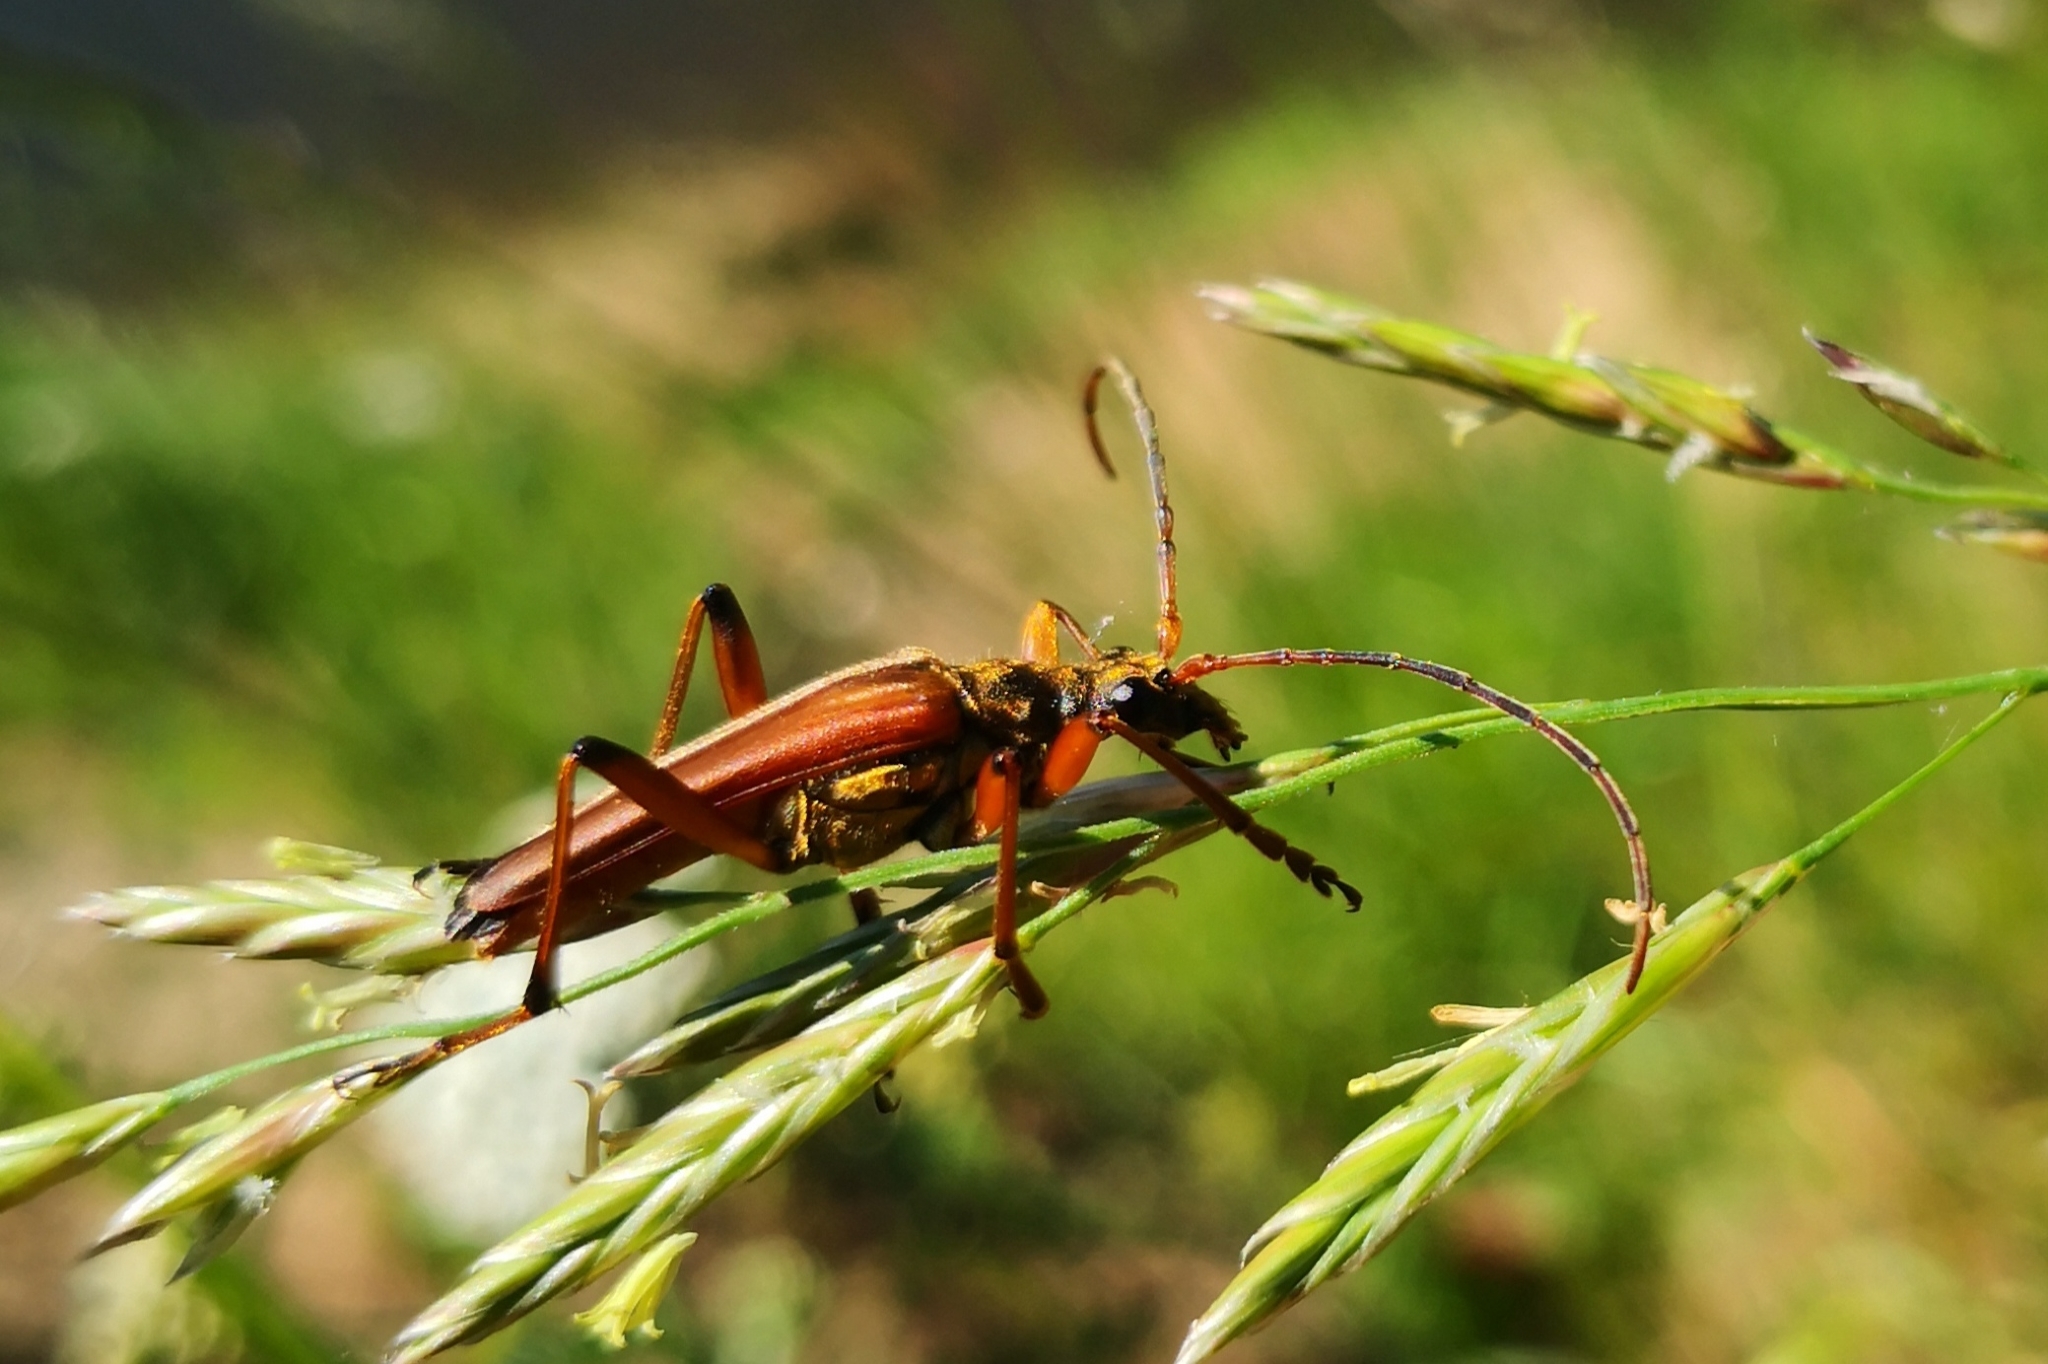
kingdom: Animalia
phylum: Arthropoda
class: Insecta
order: Coleoptera
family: Cerambycidae
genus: Stenocorus
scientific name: Stenocorus meridianus
